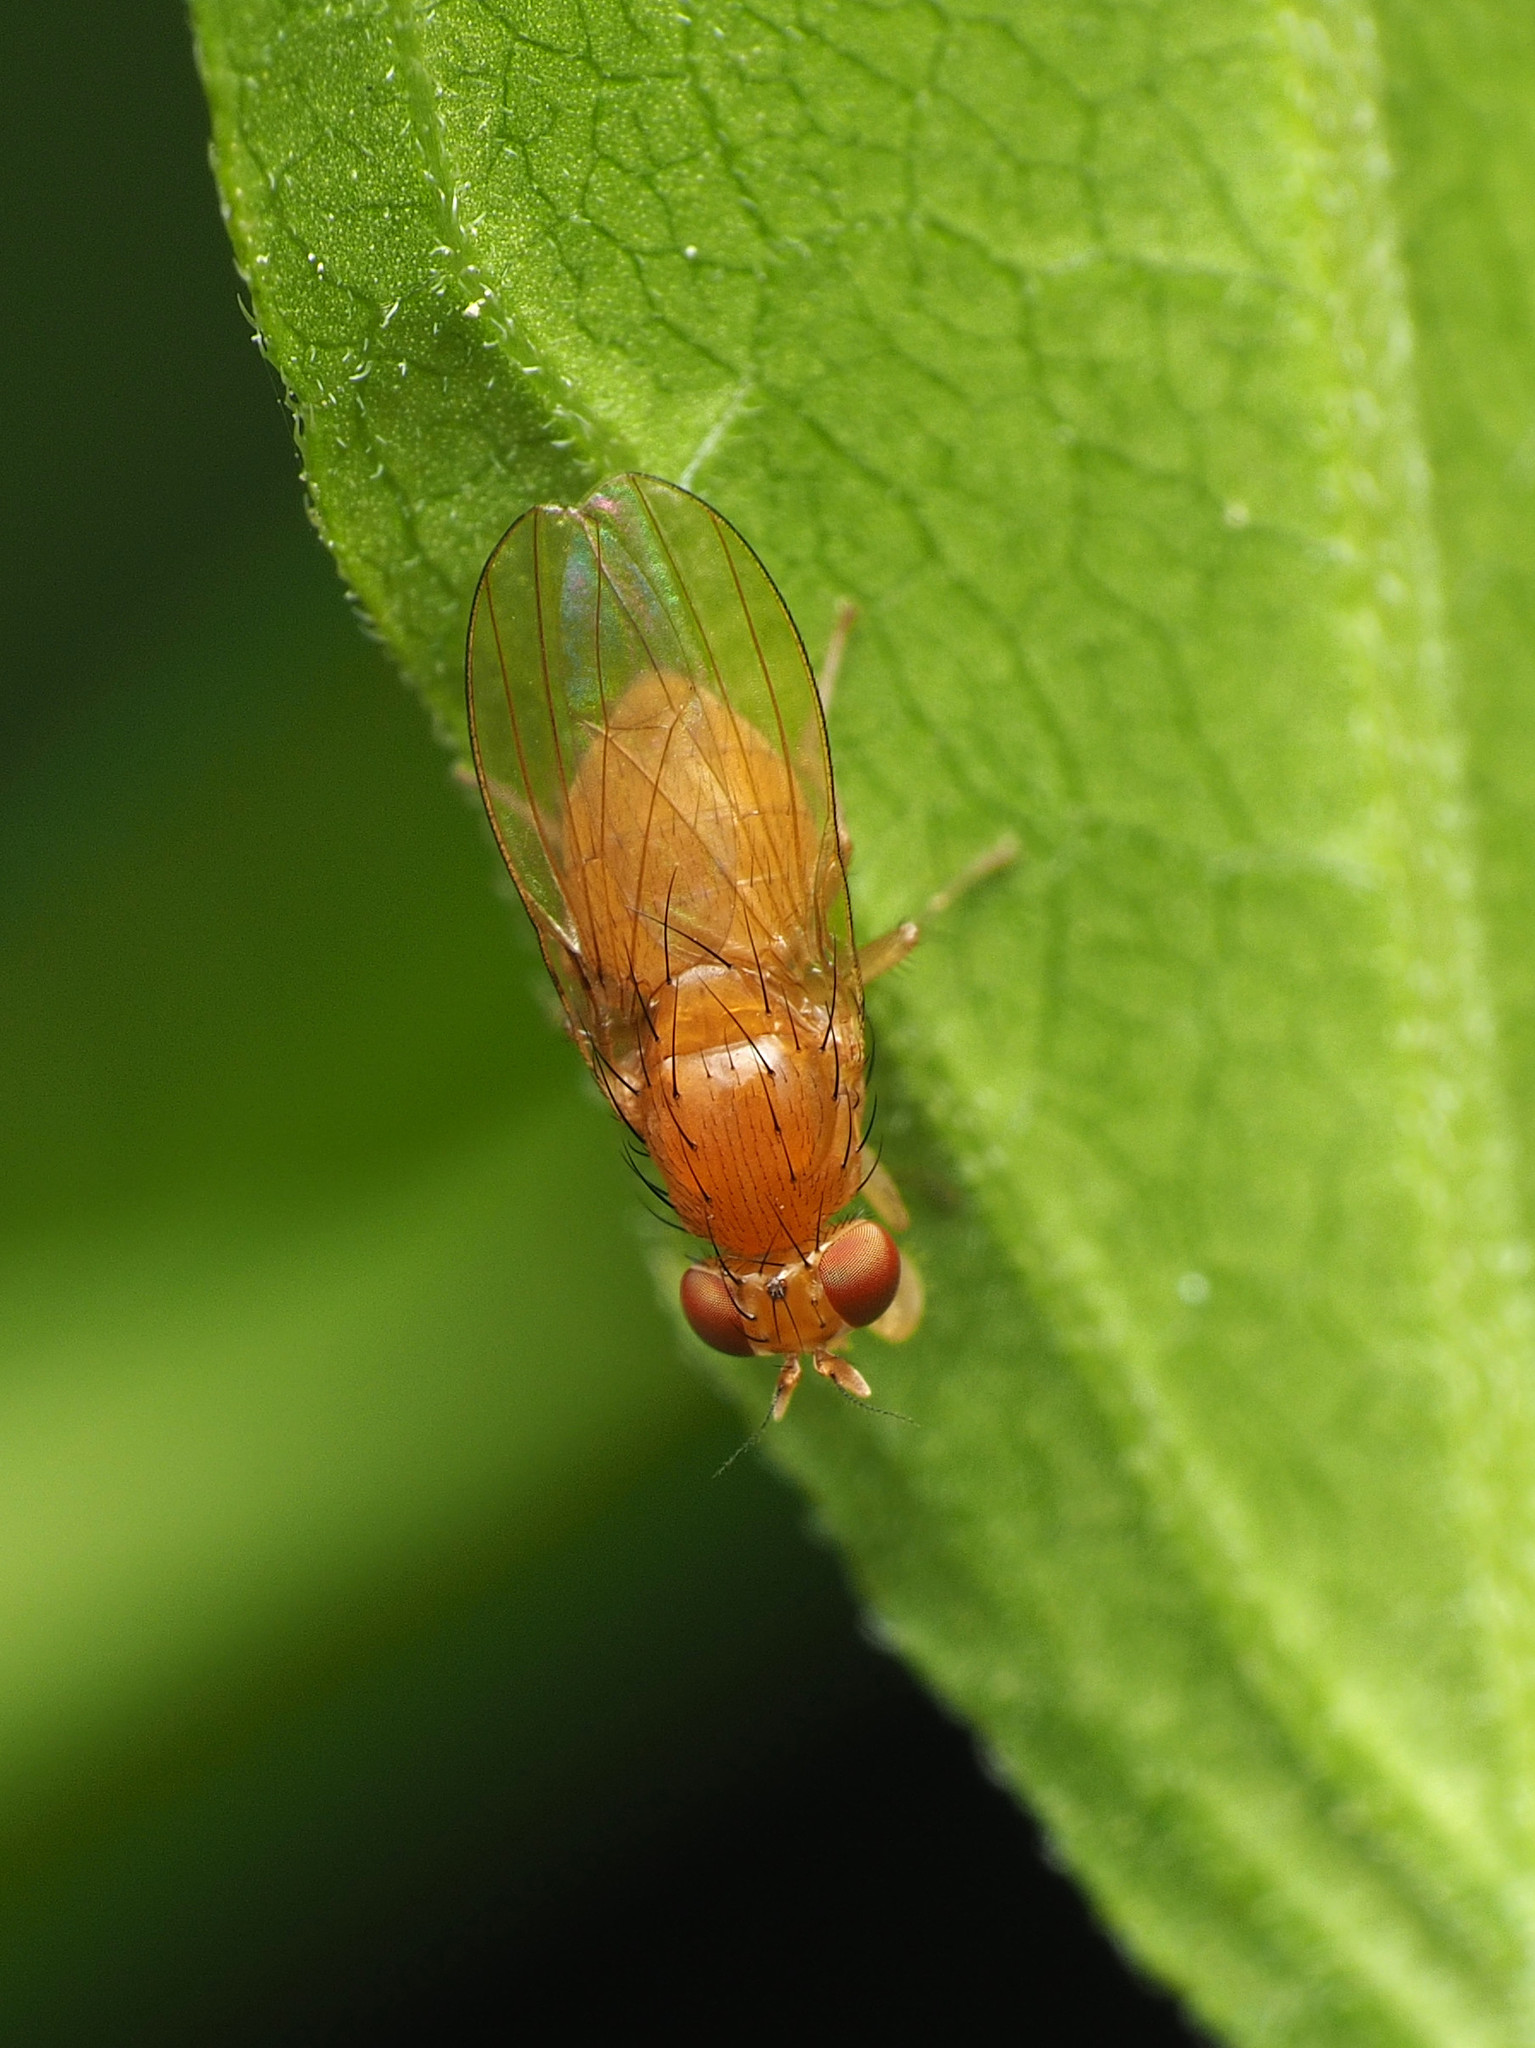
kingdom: Animalia
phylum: Arthropoda
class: Insecta
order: Diptera
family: Lauxaniidae
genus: Homoneura
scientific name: Homoneura unguiculata
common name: Beach fly
